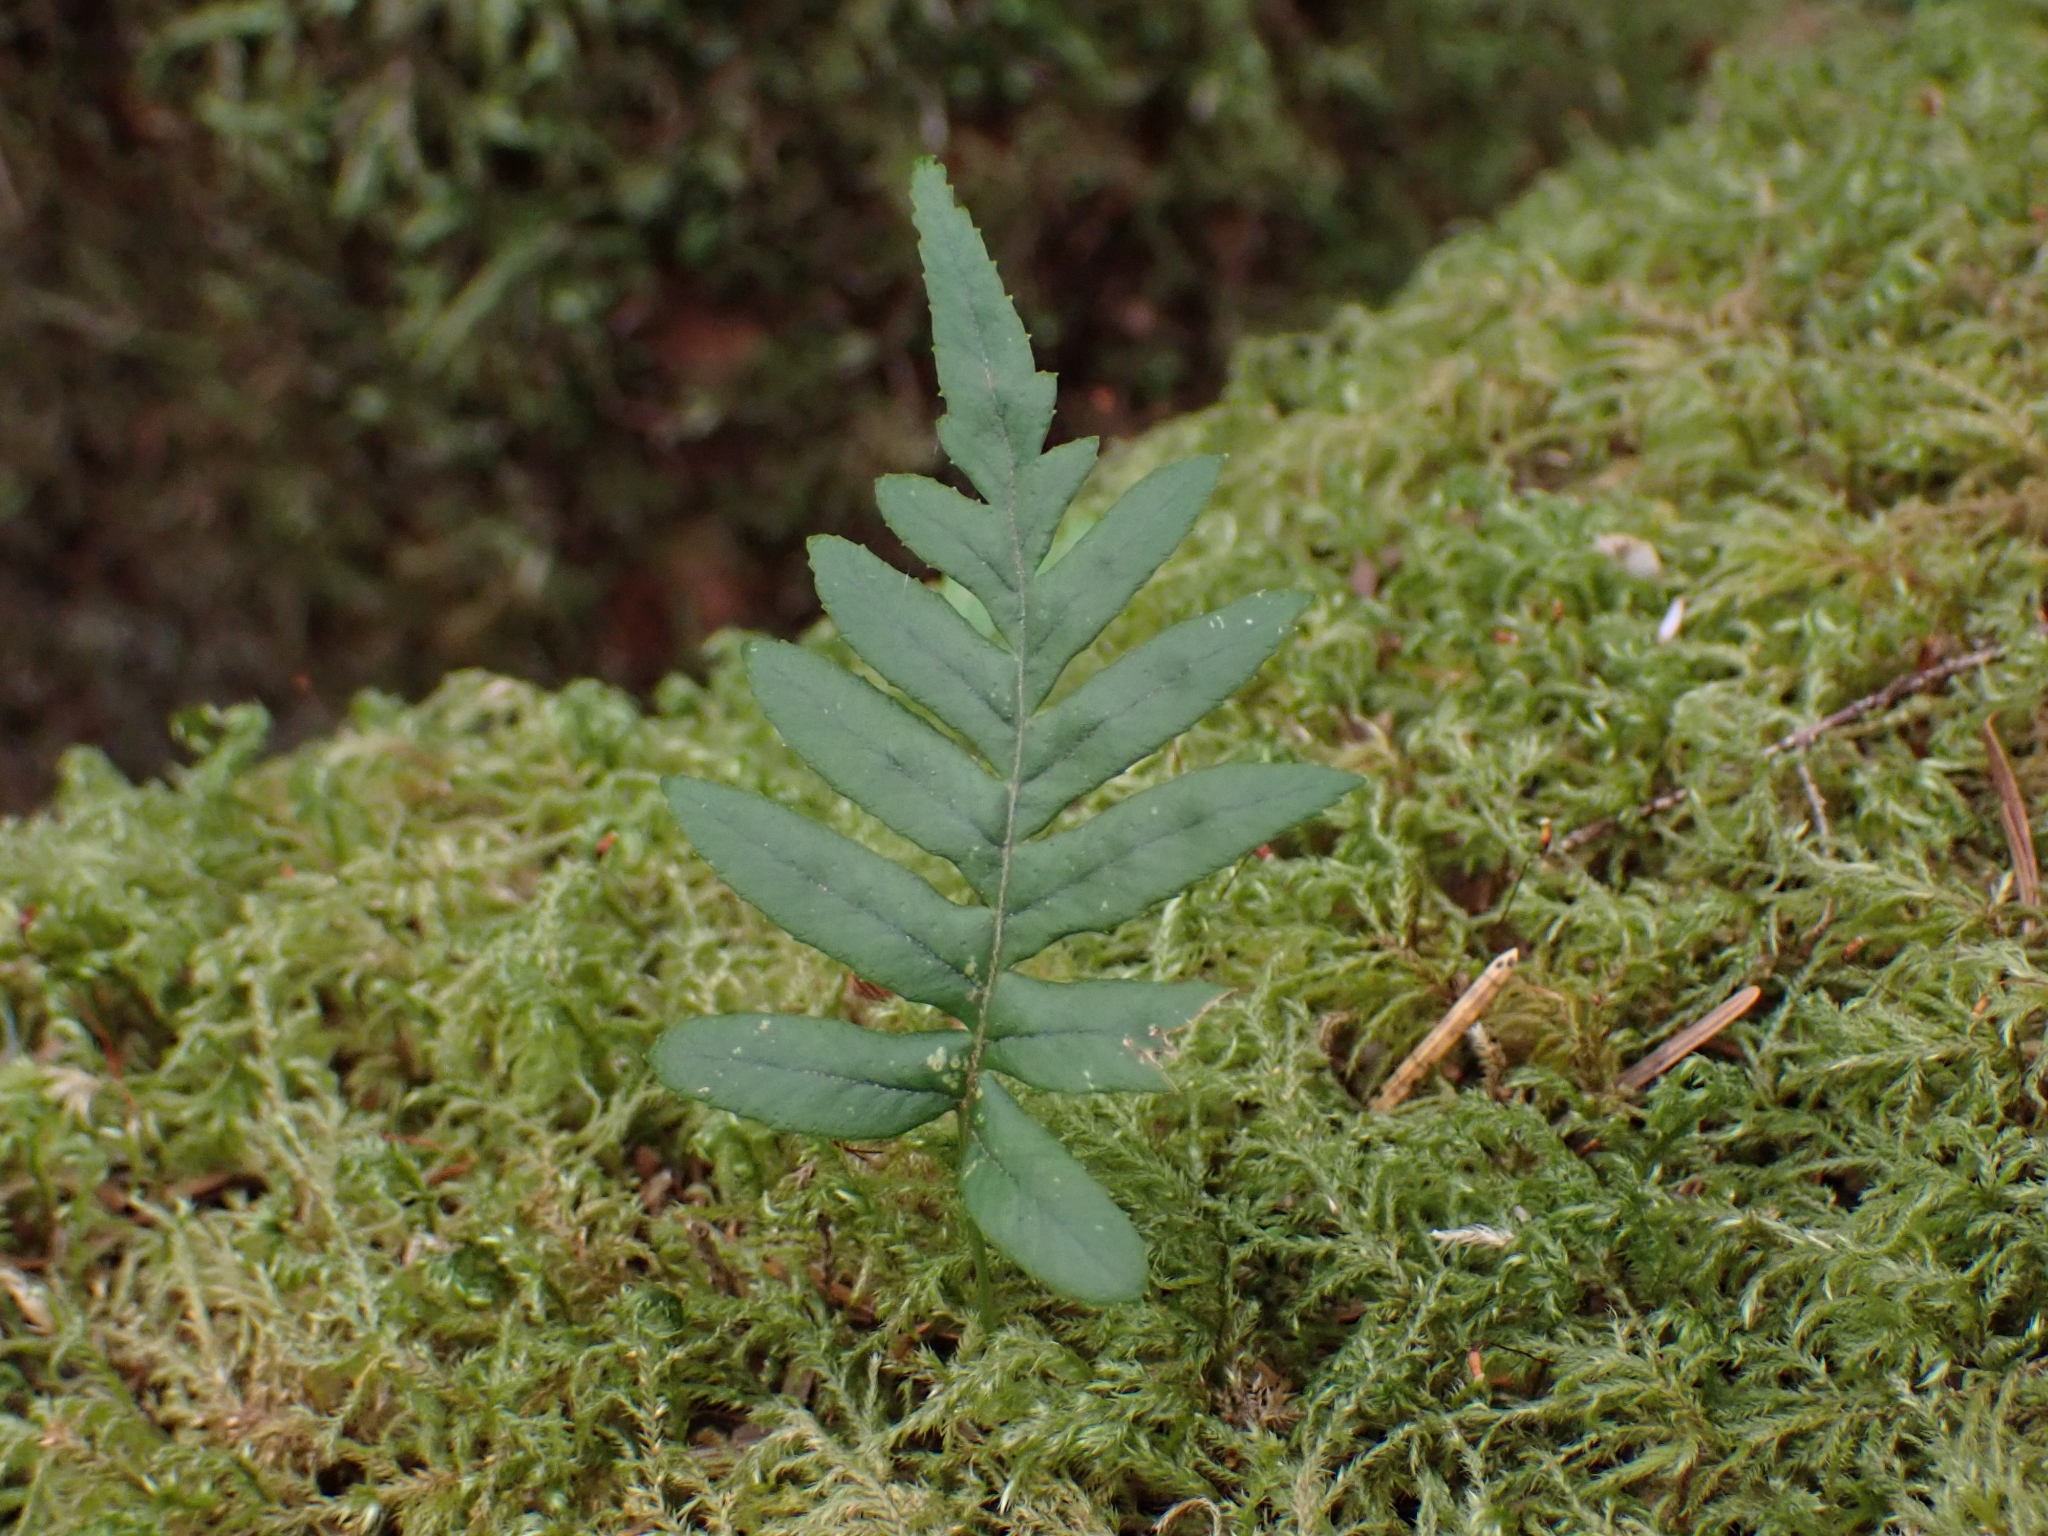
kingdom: Plantae
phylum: Tracheophyta
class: Polypodiopsida
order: Polypodiales
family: Polypodiaceae
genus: Polypodium
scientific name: Polypodium glycyrrhiza
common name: Licorice fern
